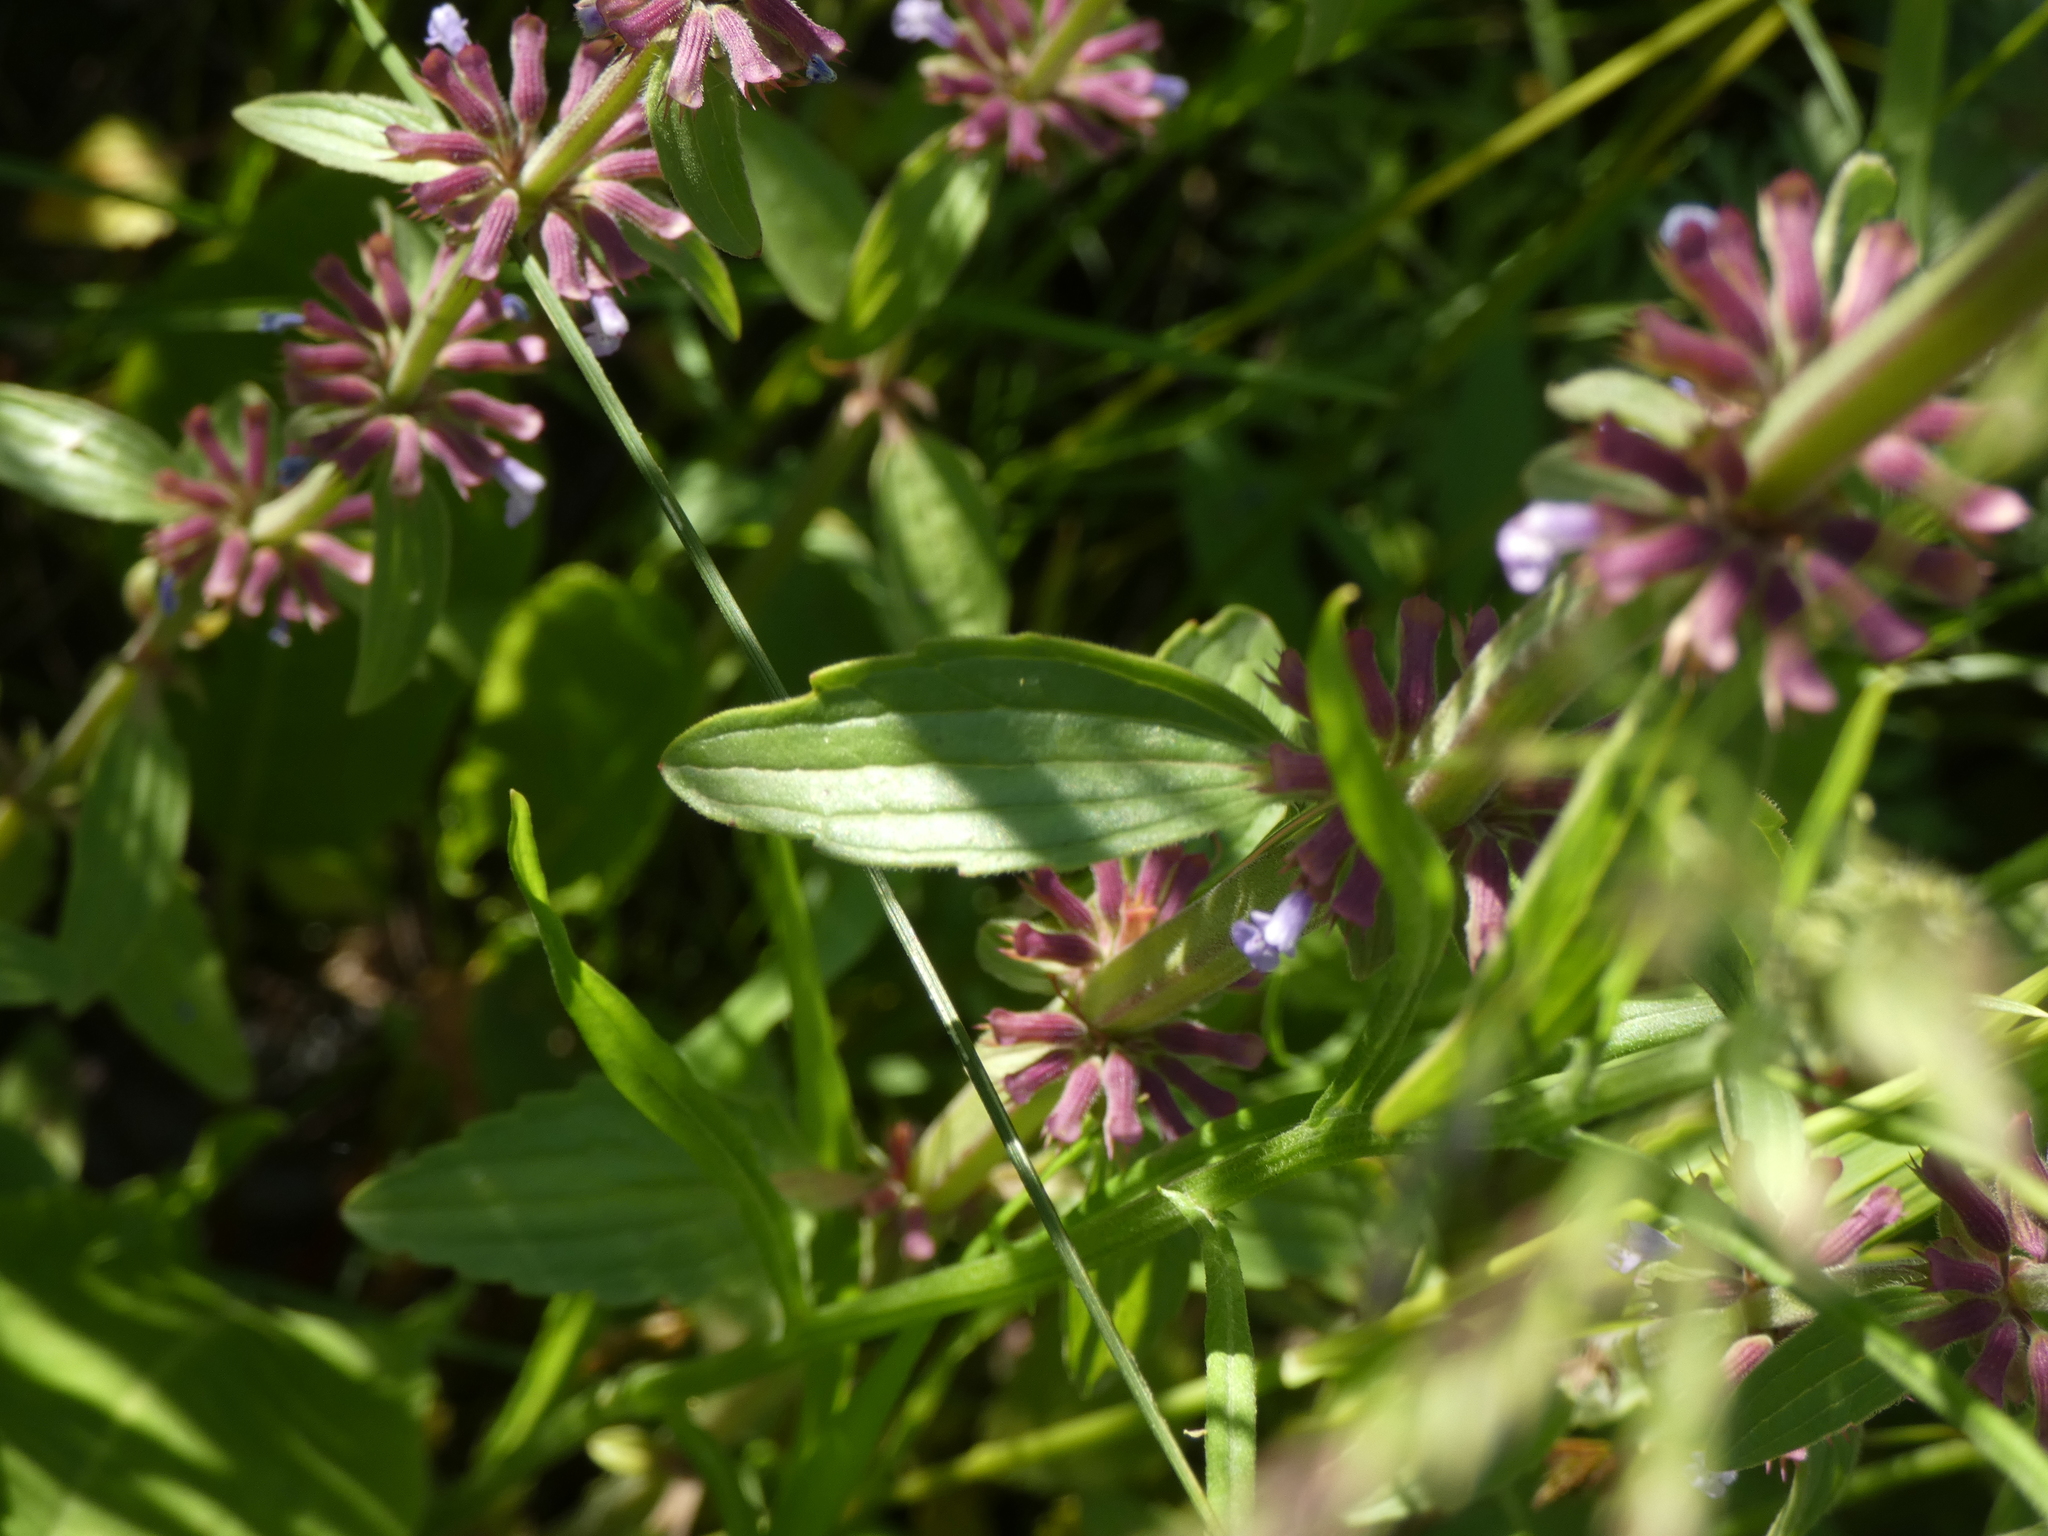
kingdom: Plantae
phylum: Tracheophyta
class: Magnoliopsida
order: Lamiales
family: Lamiaceae
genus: Dracocephalum
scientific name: Dracocephalum thymiflorum
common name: Thymeleaf dragonhead
